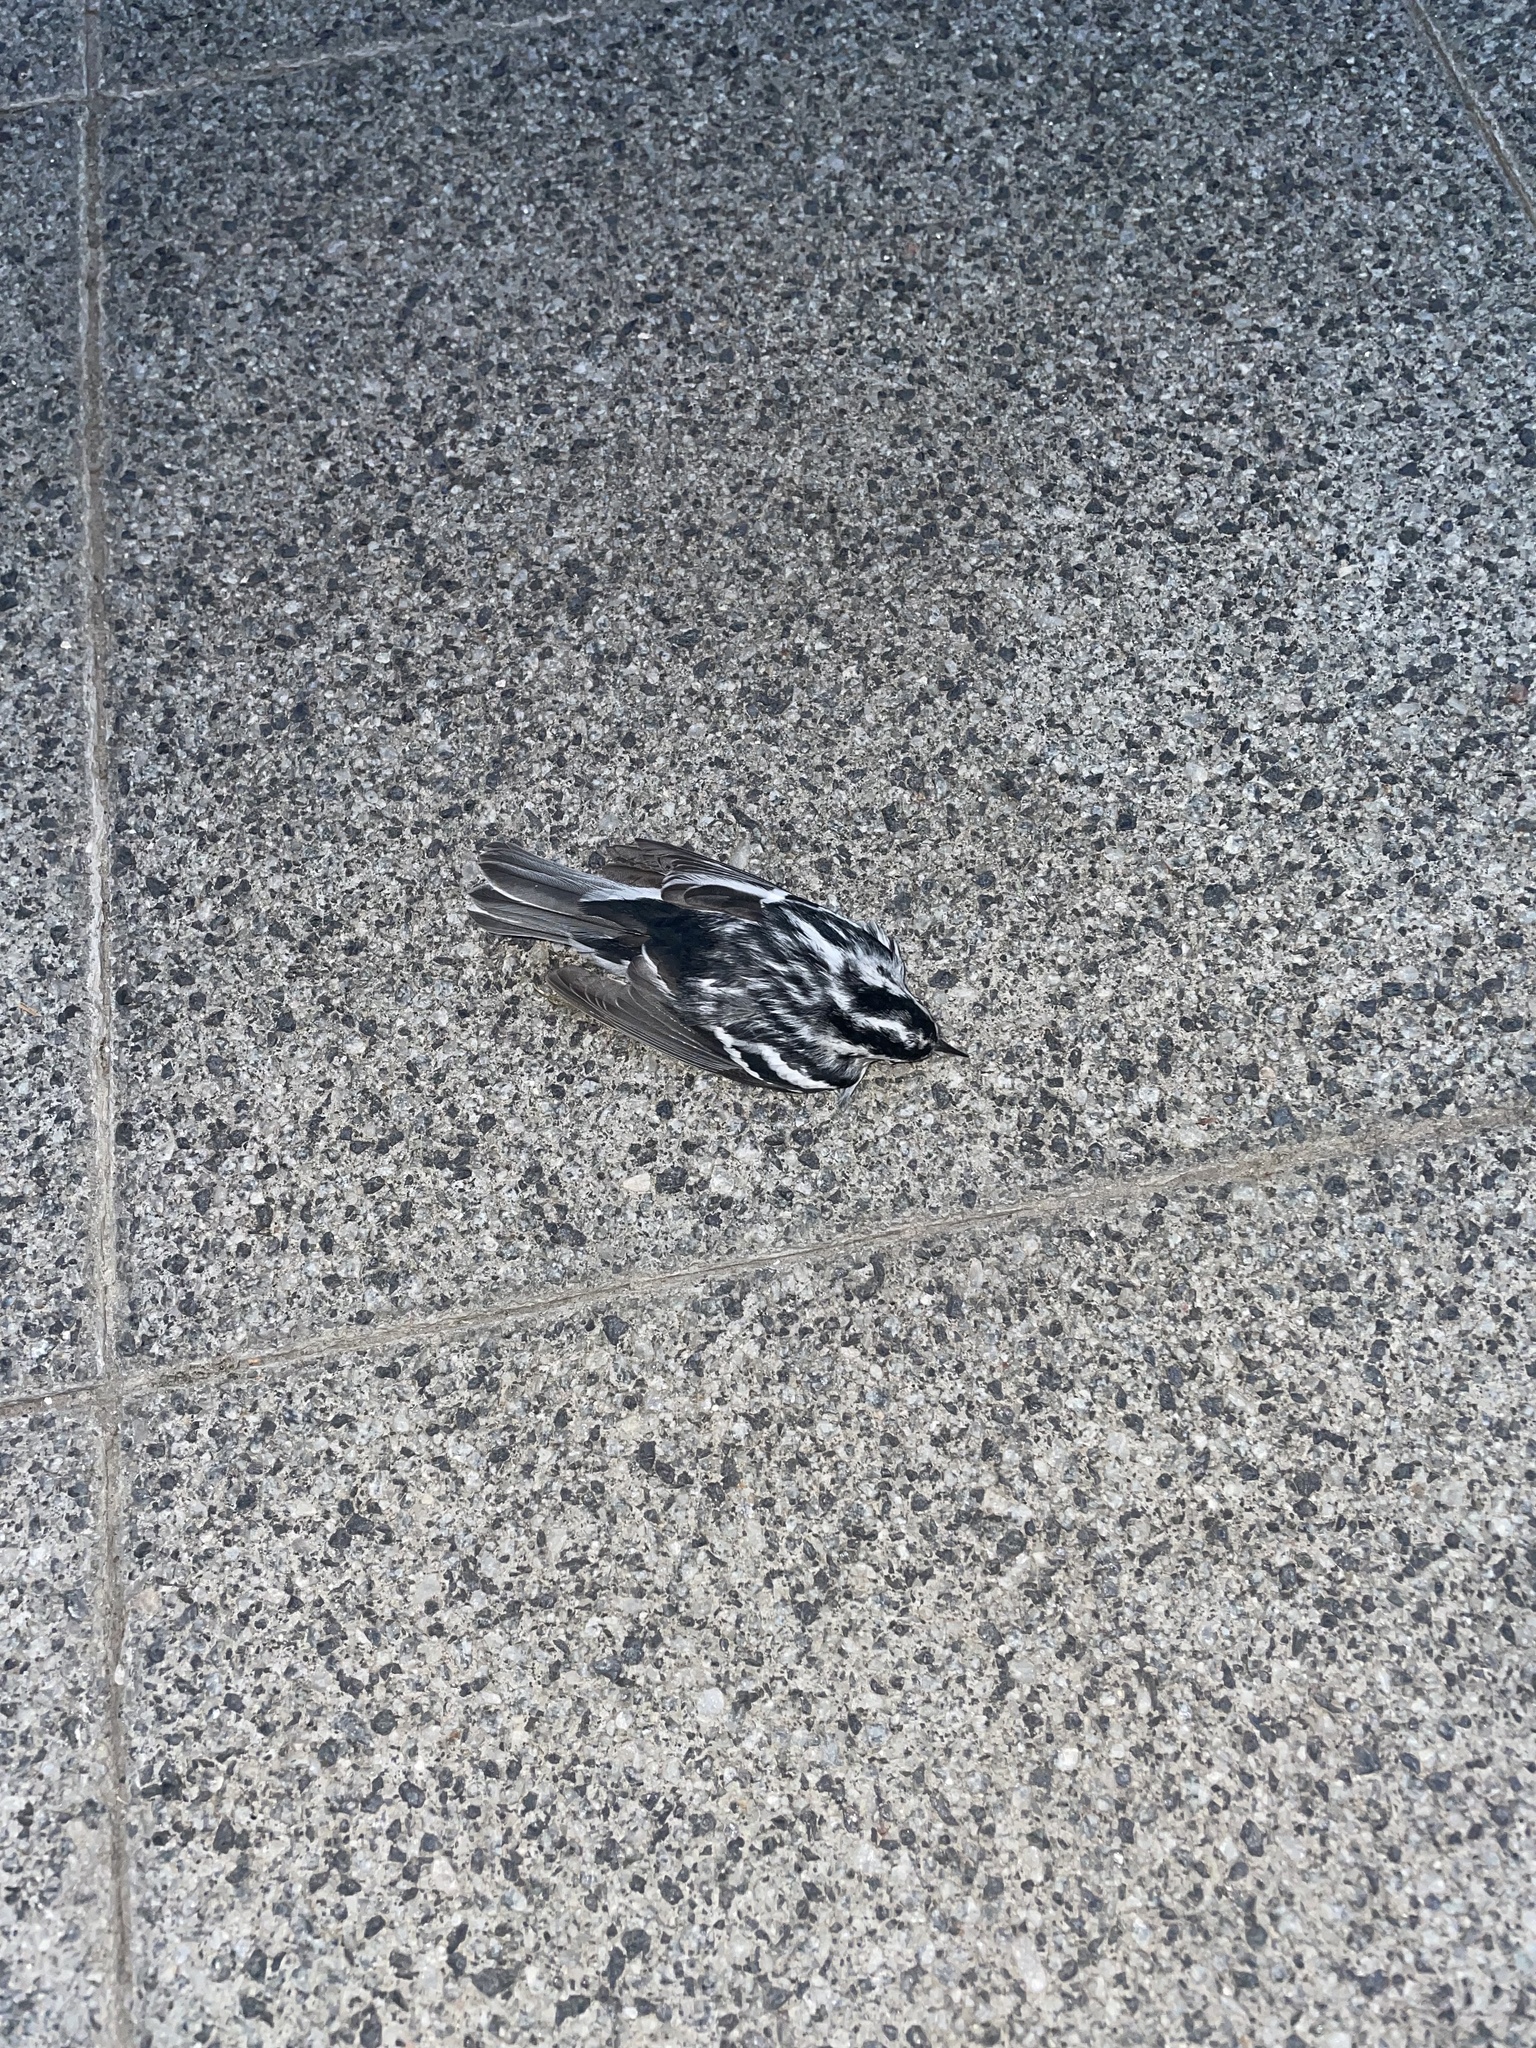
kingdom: Animalia
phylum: Chordata
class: Aves
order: Passeriformes
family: Parulidae
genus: Mniotilta
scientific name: Mniotilta varia
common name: Black-and-white warbler
